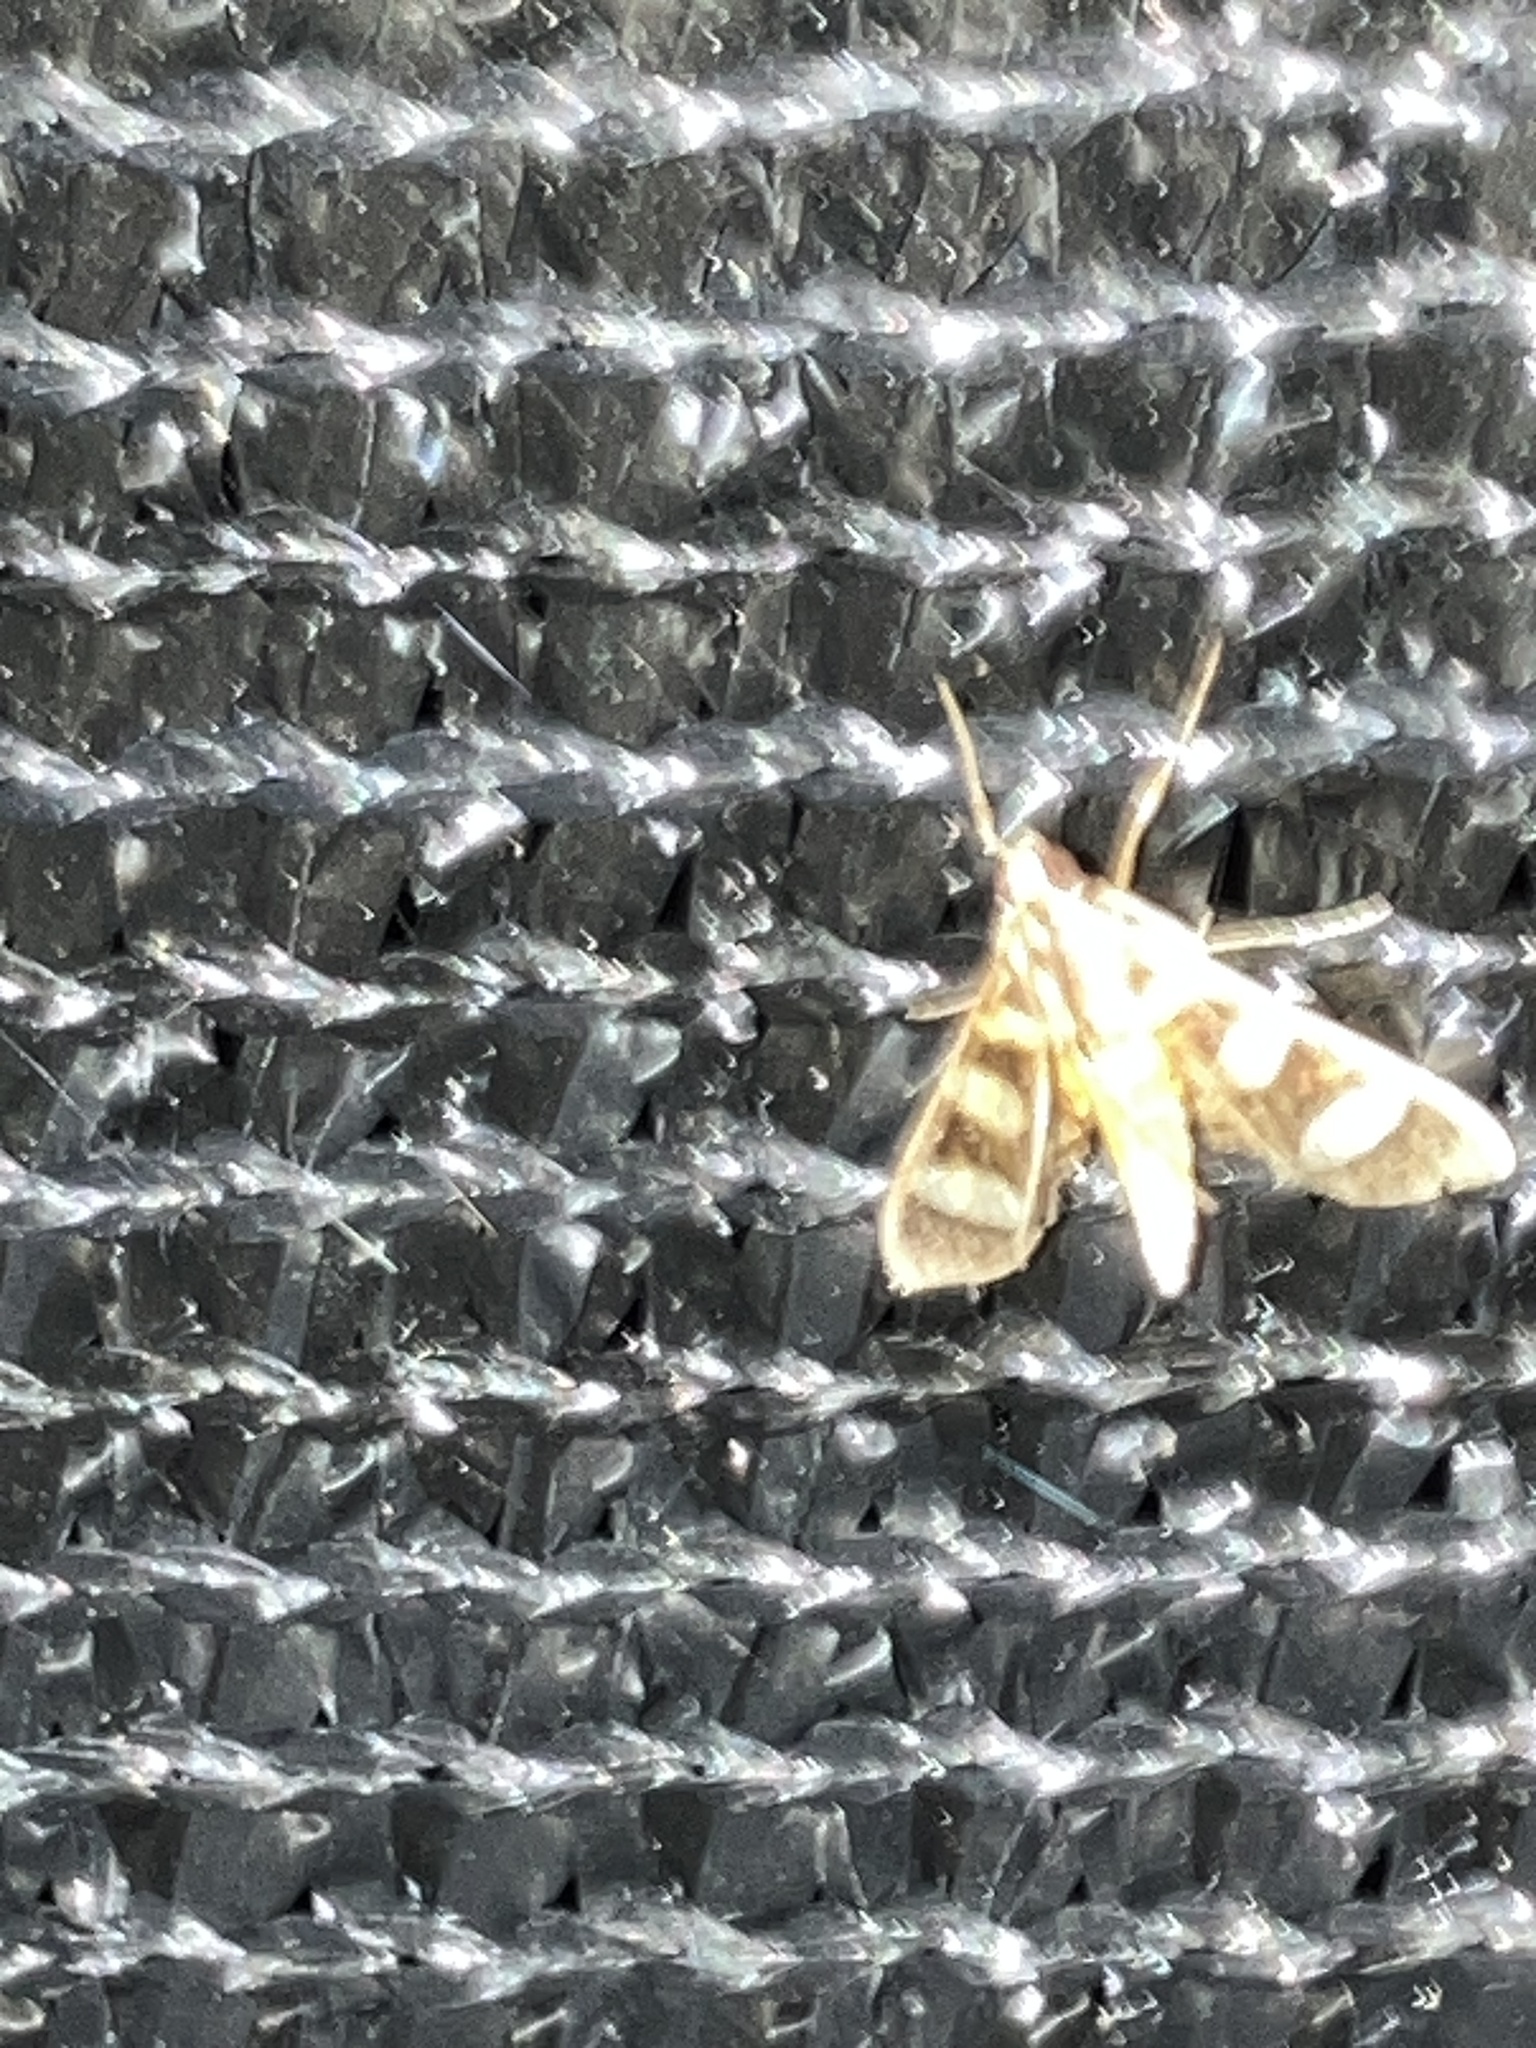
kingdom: Animalia
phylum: Arthropoda
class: Insecta
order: Lepidoptera
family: Crambidae
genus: Syngamia
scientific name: Syngamia florella
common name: Orange-spotted flower moth
